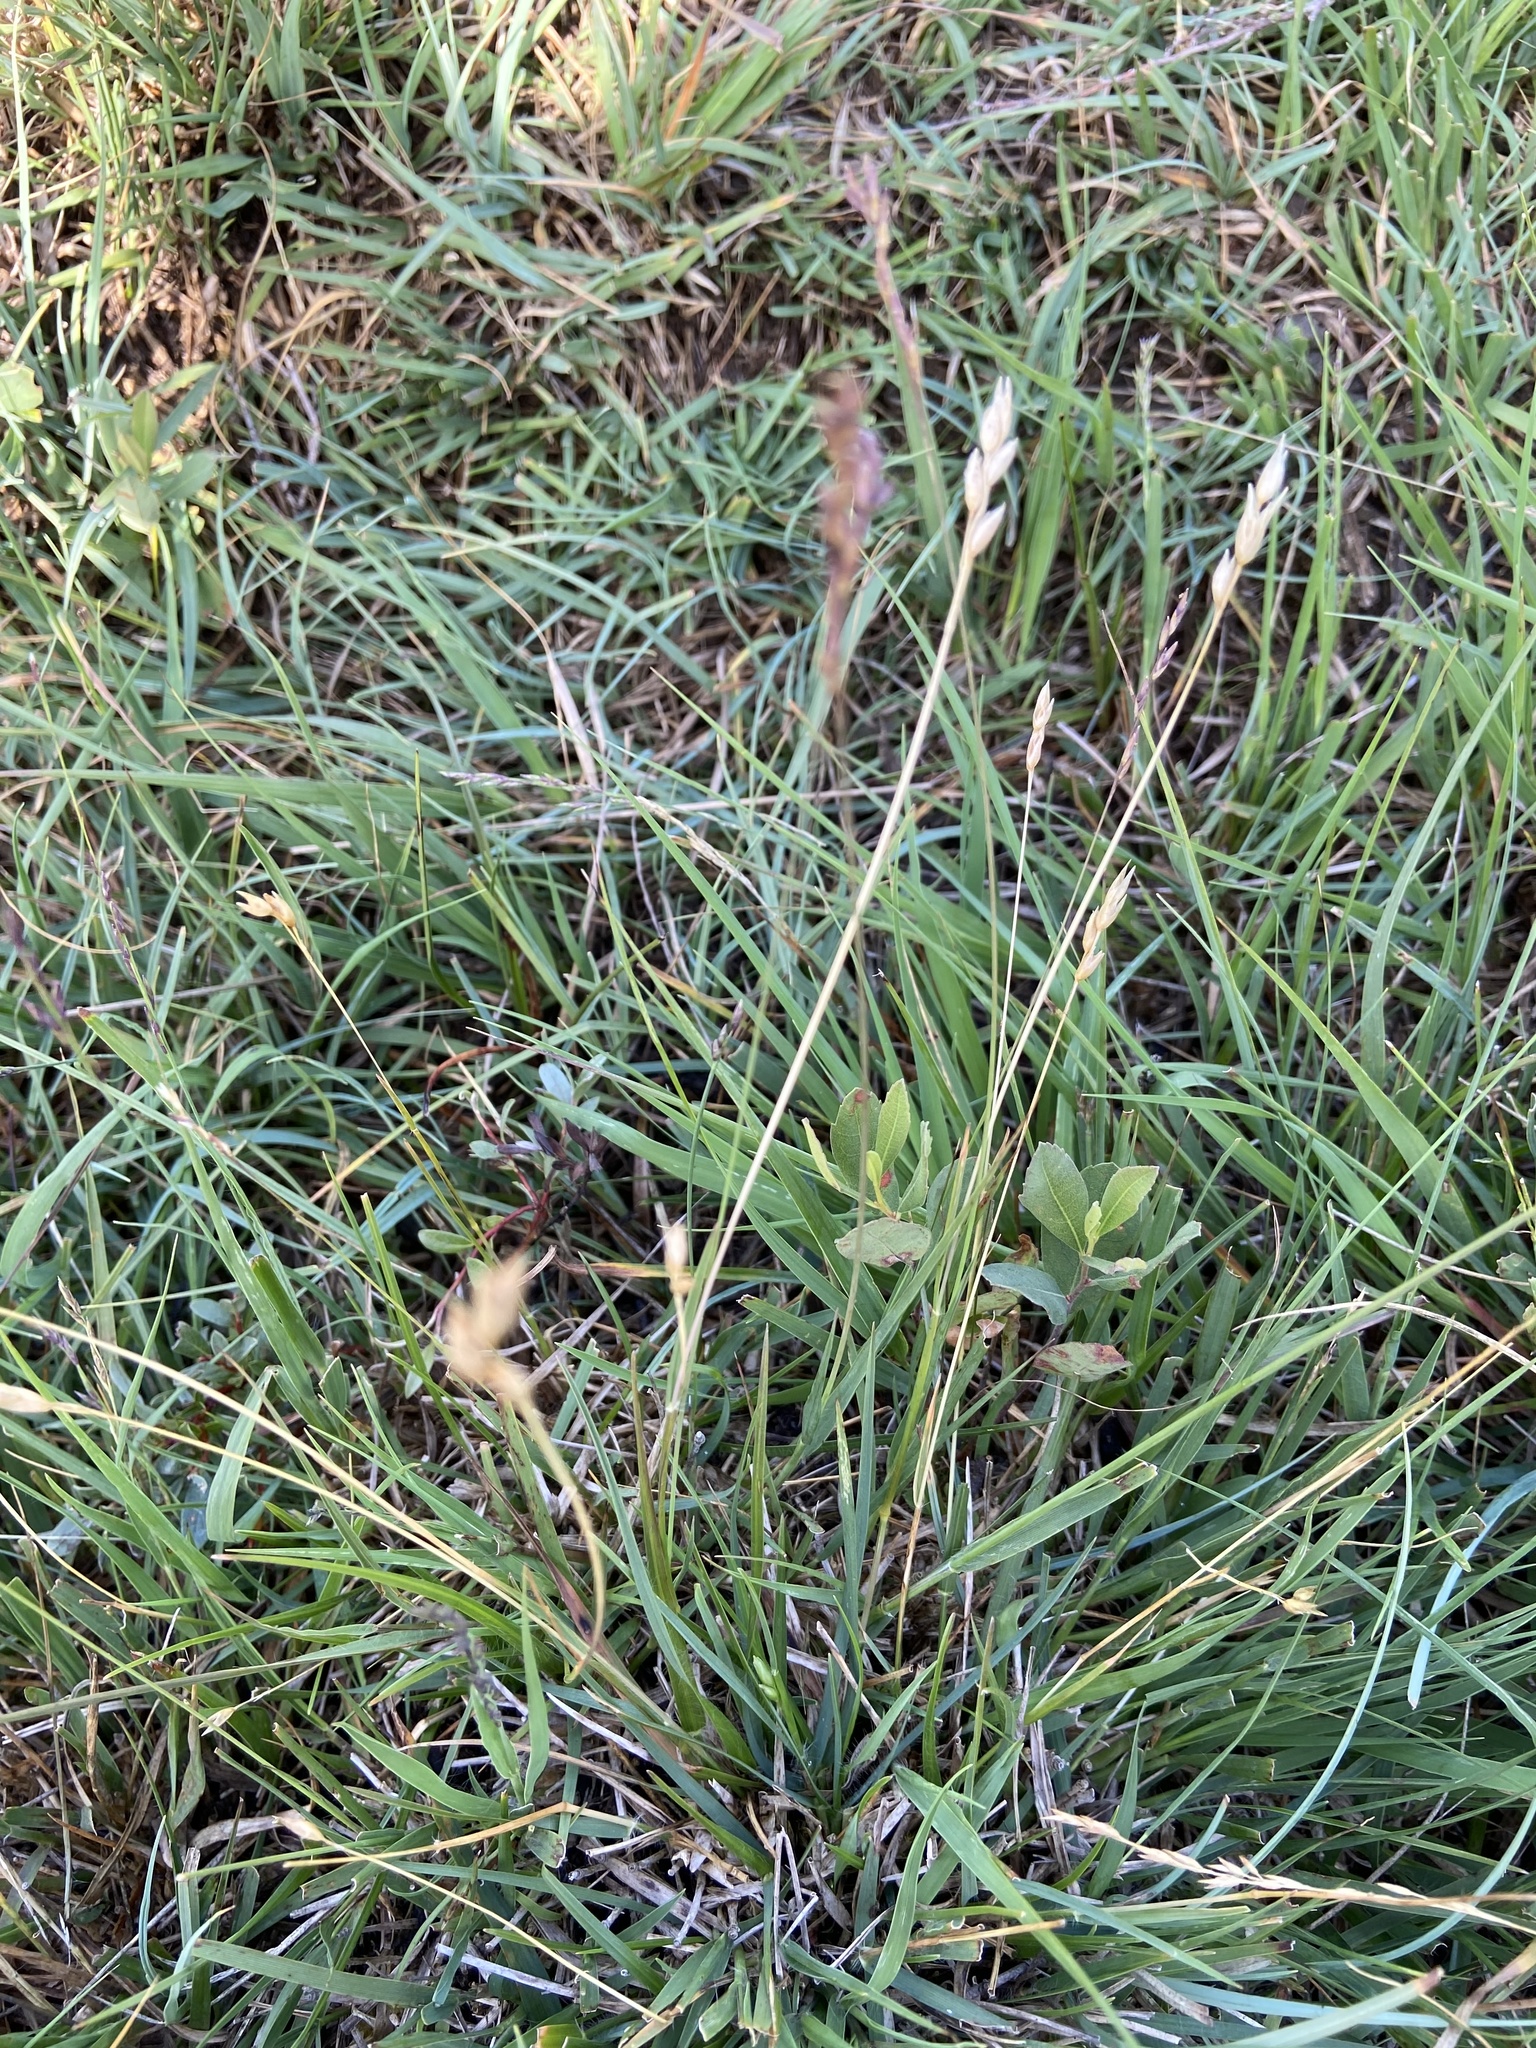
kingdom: Plantae
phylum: Tracheophyta
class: Liliopsida
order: Poales
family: Poaceae
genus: Danthonia
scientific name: Danthonia decumbens
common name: Common heathgrass
